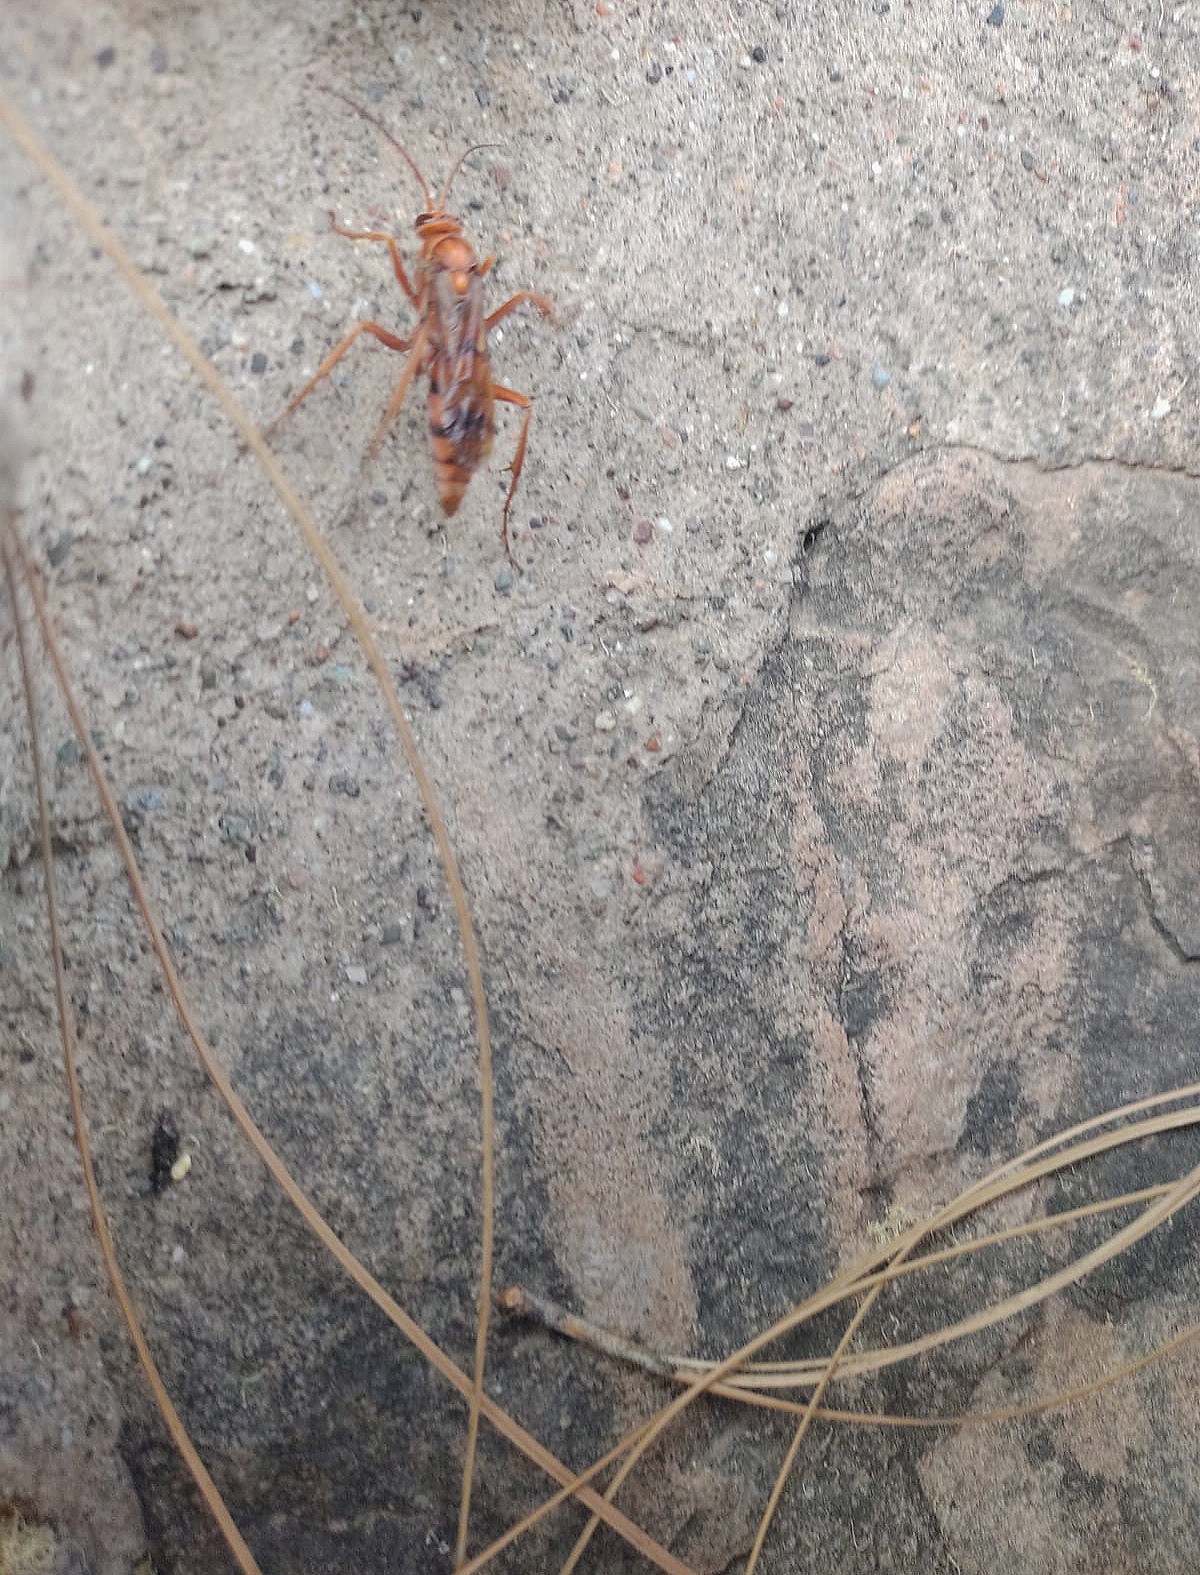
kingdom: Animalia
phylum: Arthropoda
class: Insecta
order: Hymenoptera
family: Pompilidae
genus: Tachypompilus
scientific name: Tachypompilus mendozae
